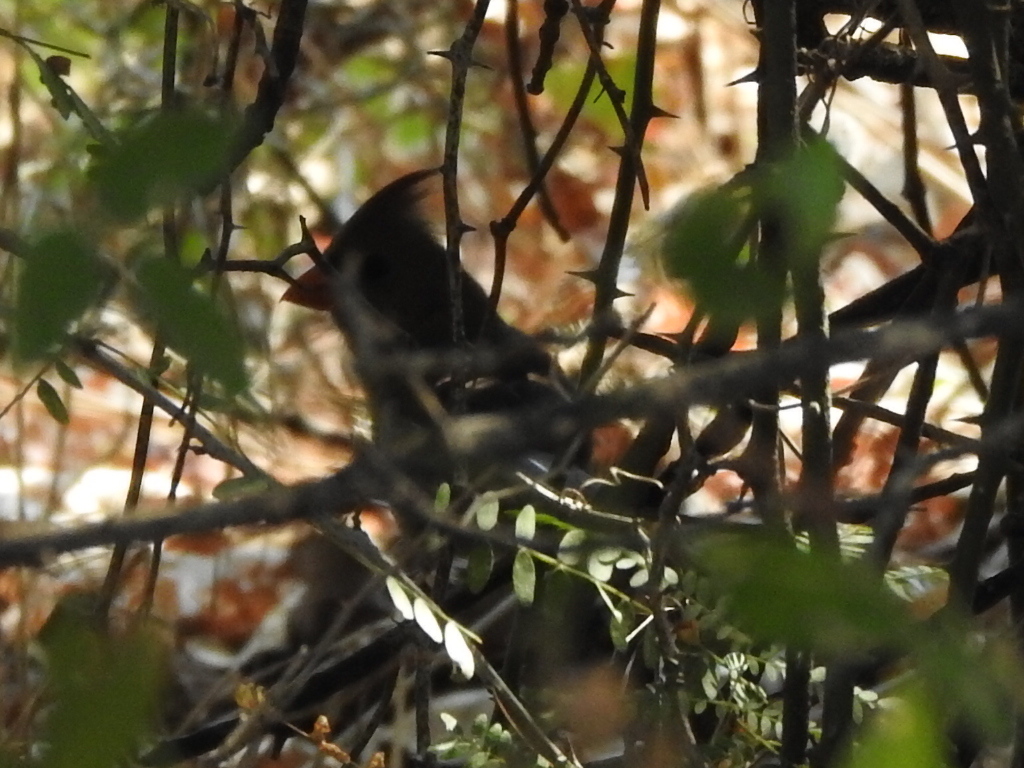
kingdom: Animalia
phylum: Chordata
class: Aves
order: Passeriformes
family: Cardinalidae
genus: Cardinalis
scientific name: Cardinalis cardinalis
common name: Northern cardinal
